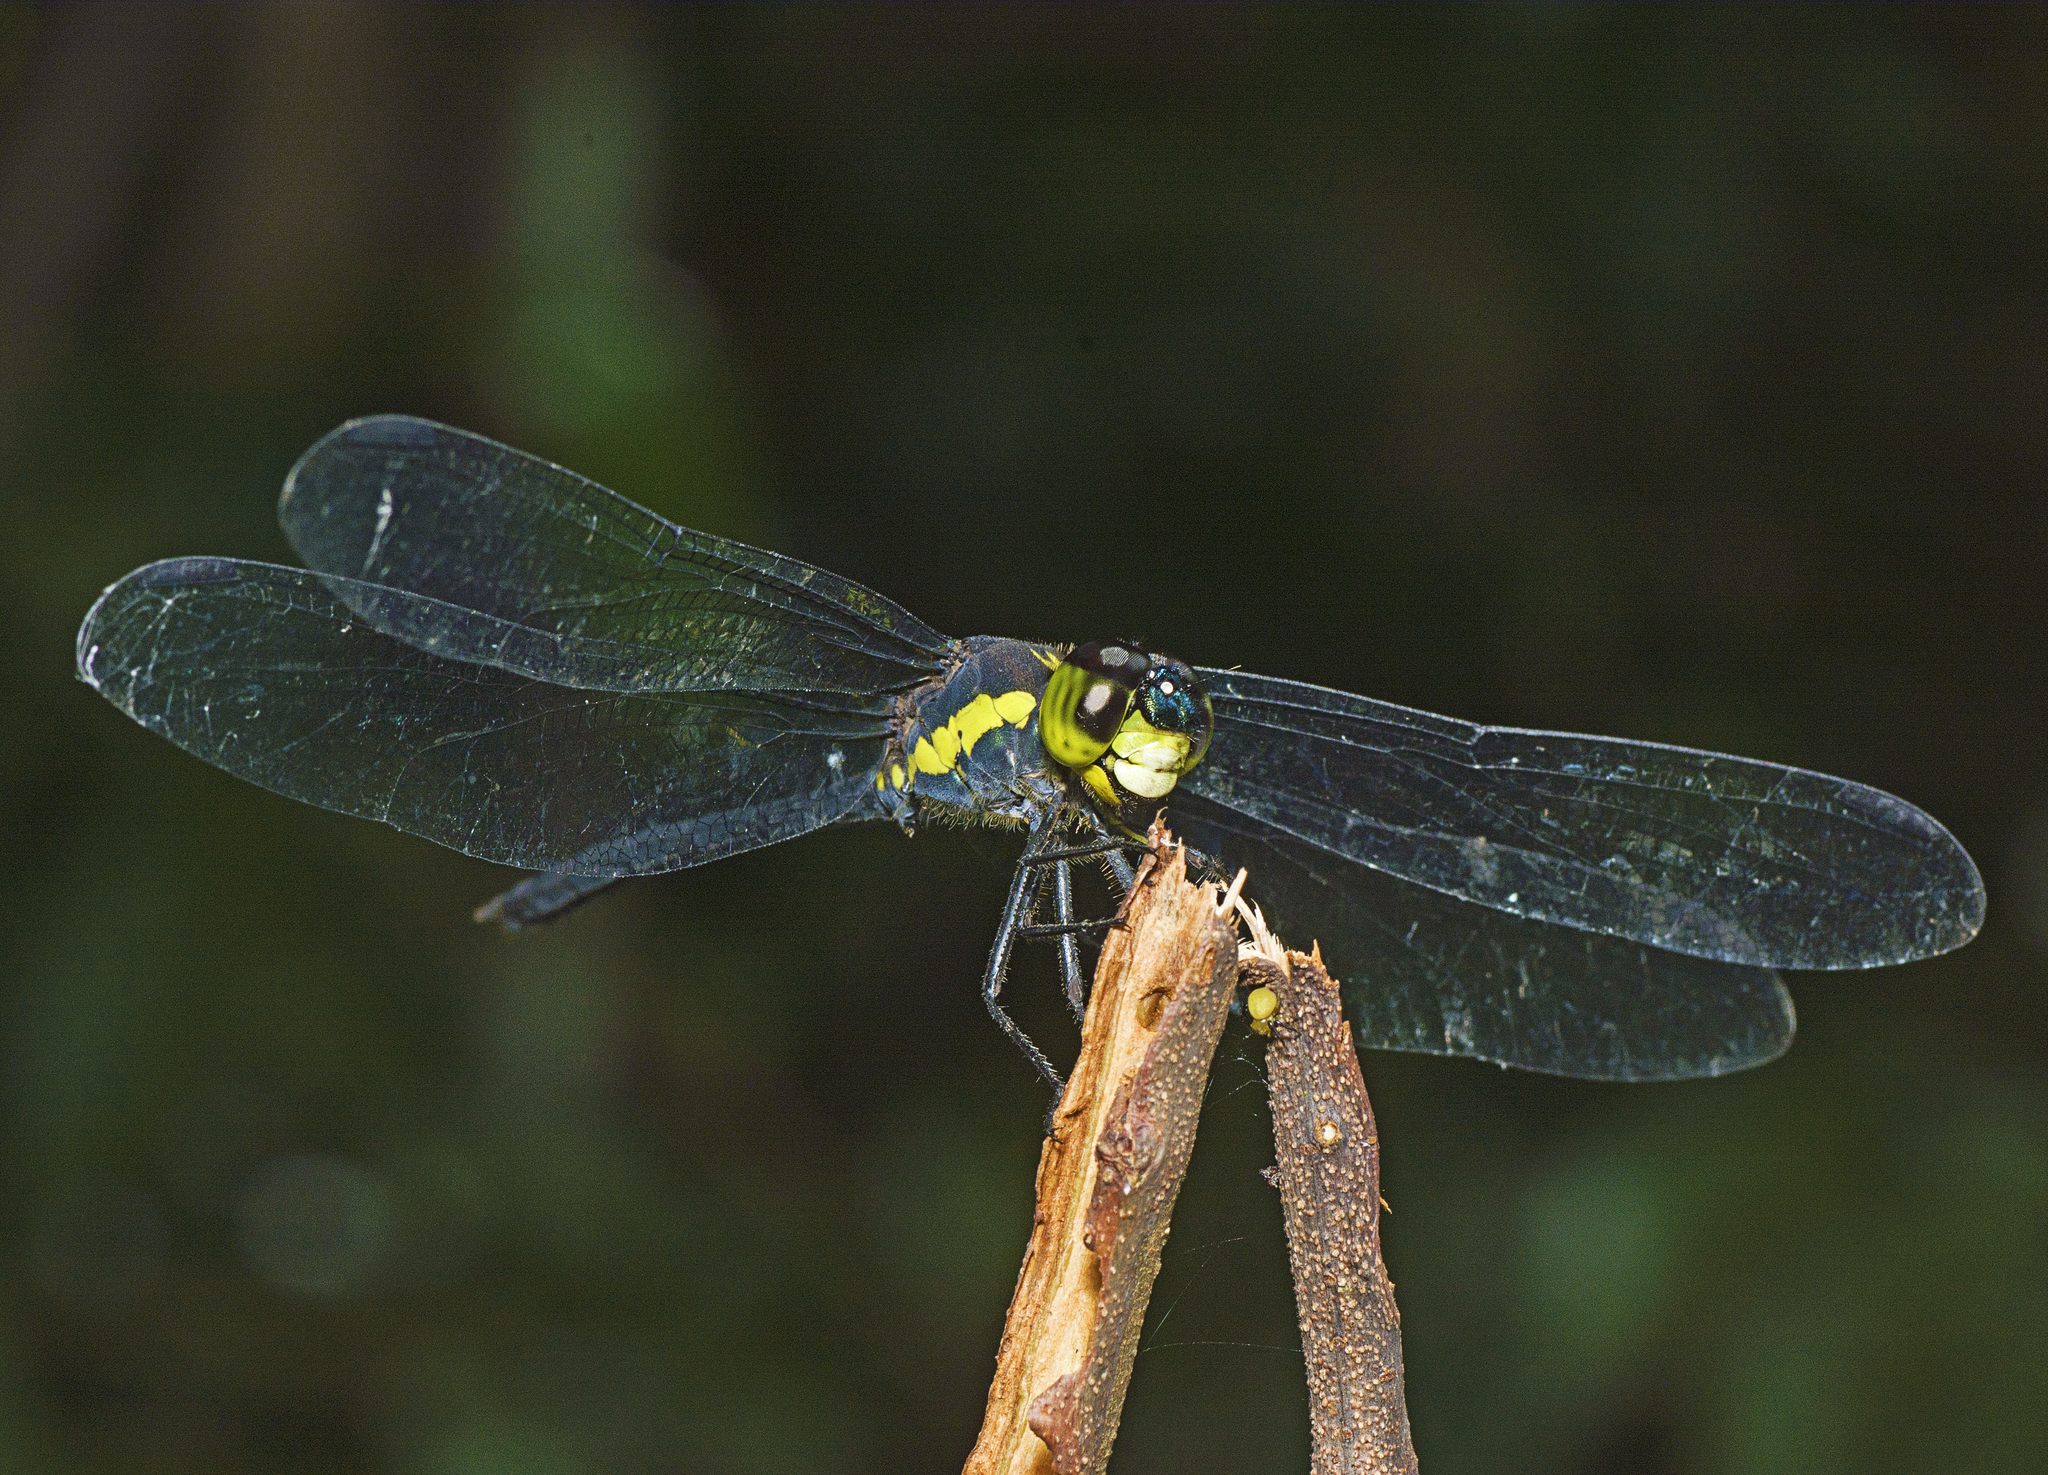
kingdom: Animalia
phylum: Arthropoda
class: Insecta
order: Odonata
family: Libellulidae
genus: Agrionoptera
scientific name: Agrionoptera longitudinalis
